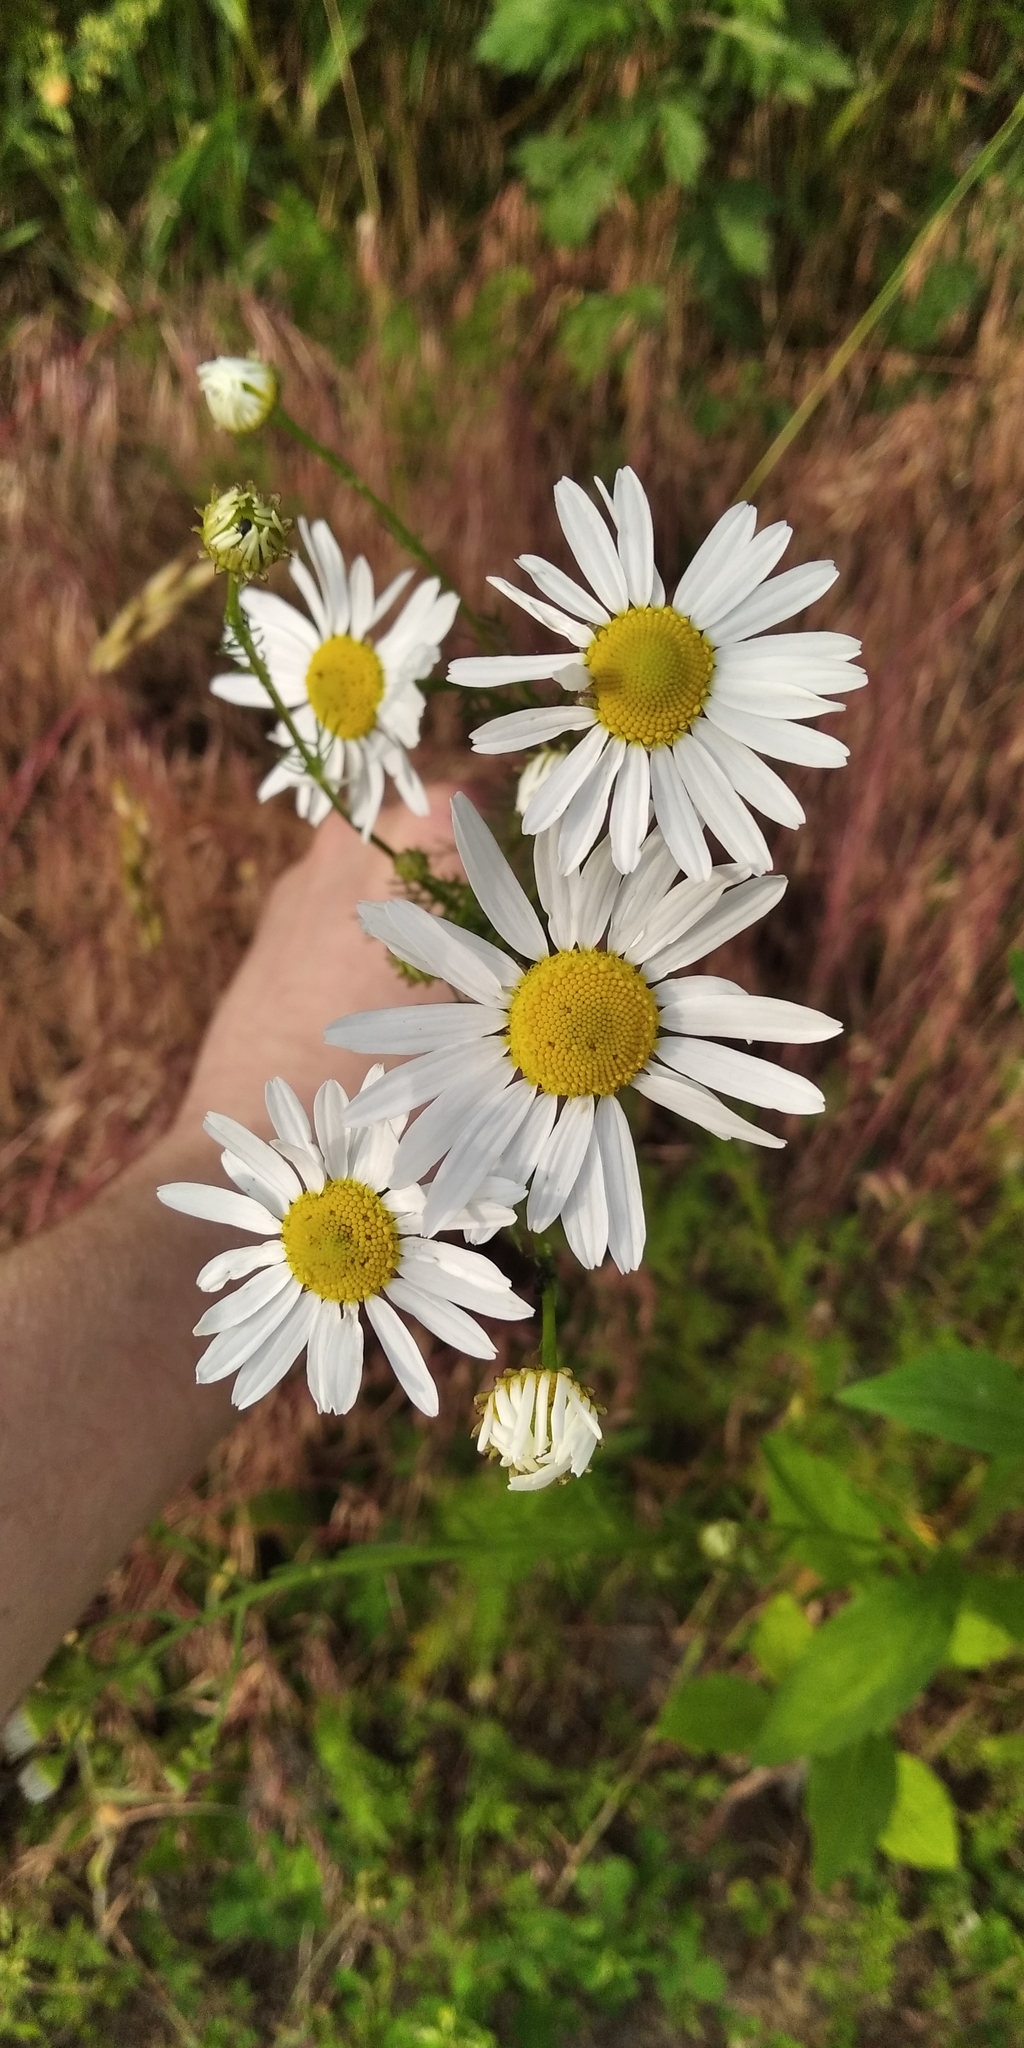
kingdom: Plantae
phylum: Tracheophyta
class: Magnoliopsida
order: Asterales
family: Asteraceae
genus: Tripleurospermum
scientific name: Tripleurospermum inodorum
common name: Scentless mayweed
